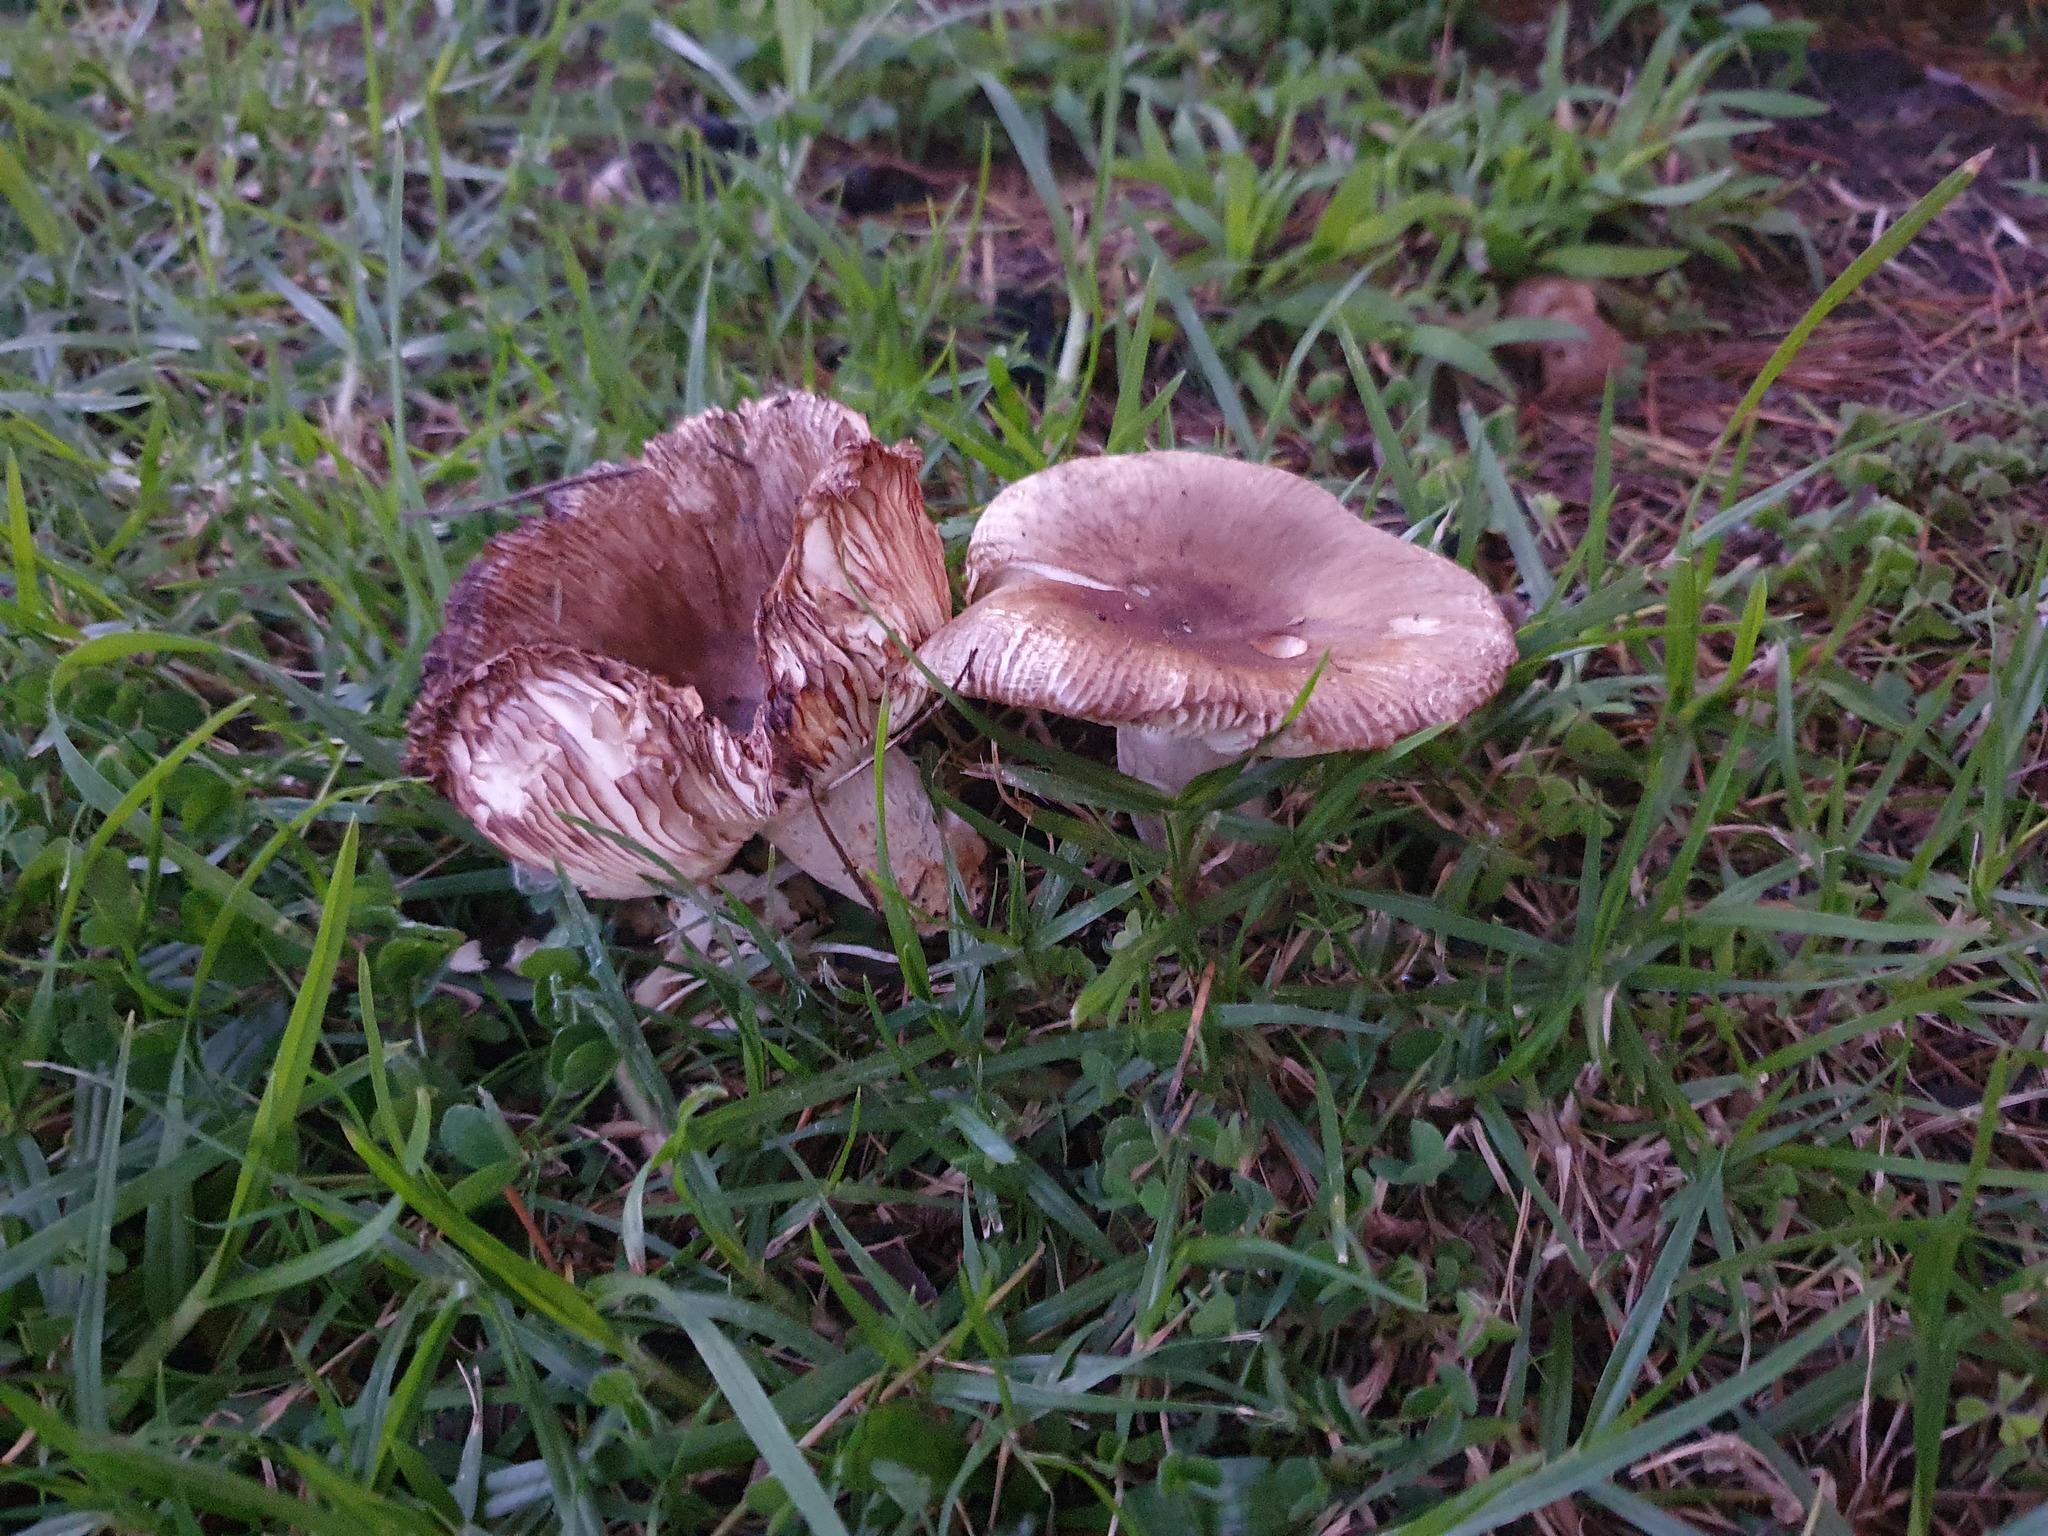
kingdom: Fungi
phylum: Basidiomycota
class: Agaricomycetes
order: Russulales
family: Russulaceae
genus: Russula
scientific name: Russula amoenolens
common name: Camembert brittlegill
